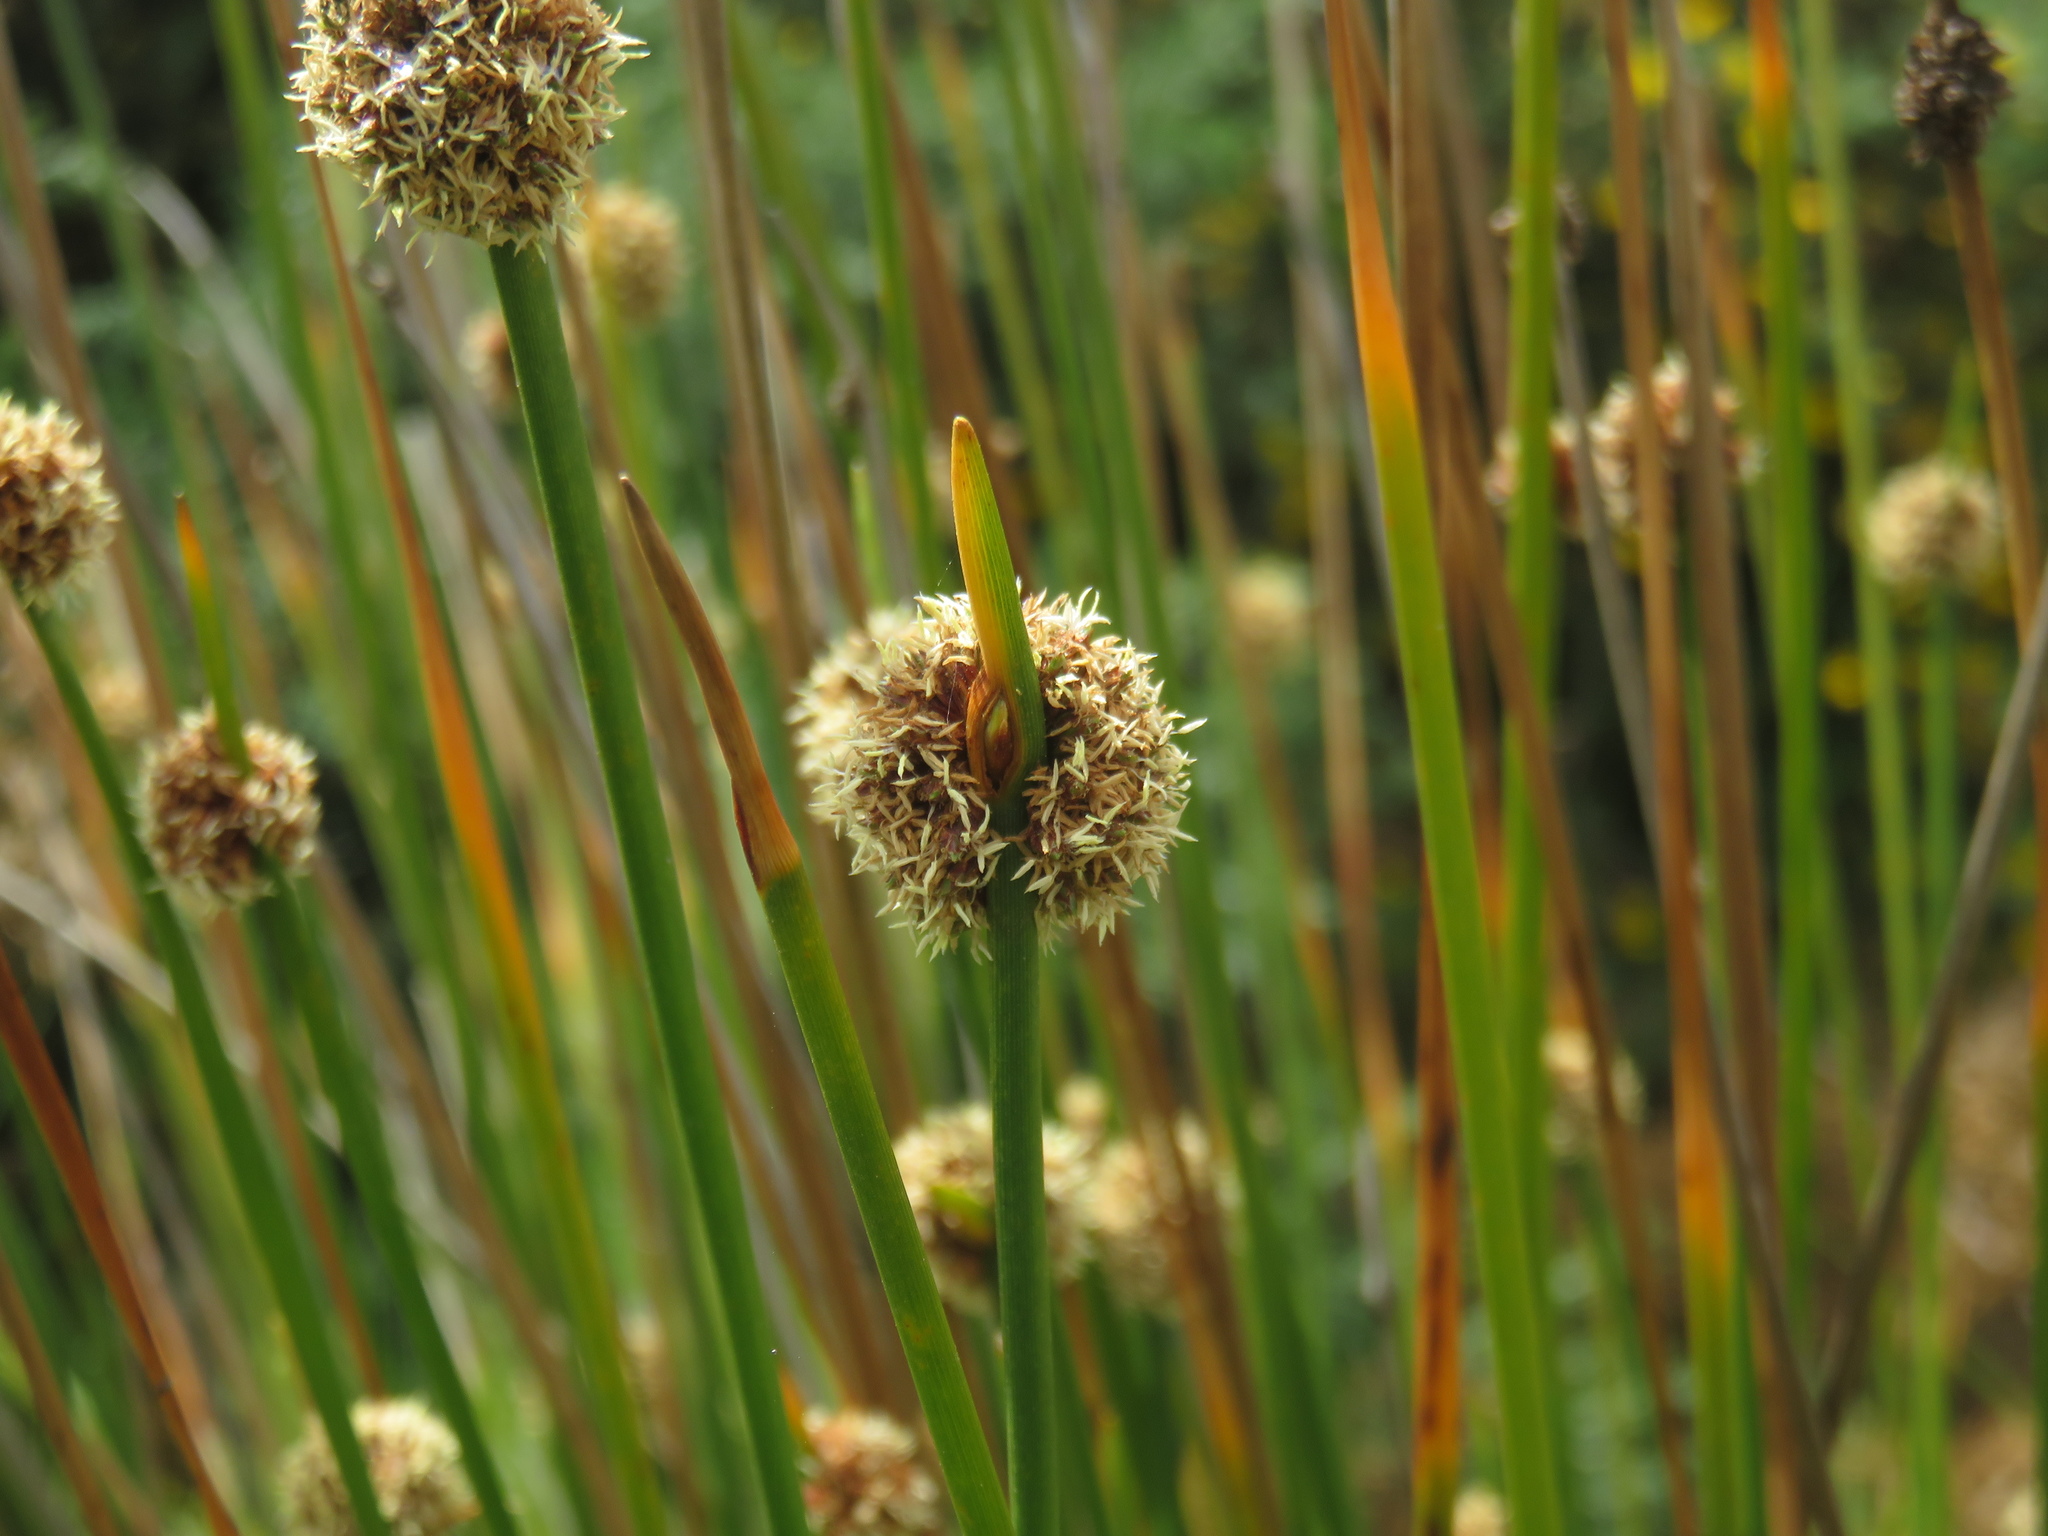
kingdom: Plantae
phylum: Tracheophyta
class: Liliopsida
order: Poales
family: Cyperaceae
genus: Ficinia
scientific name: Ficinia nodosa
